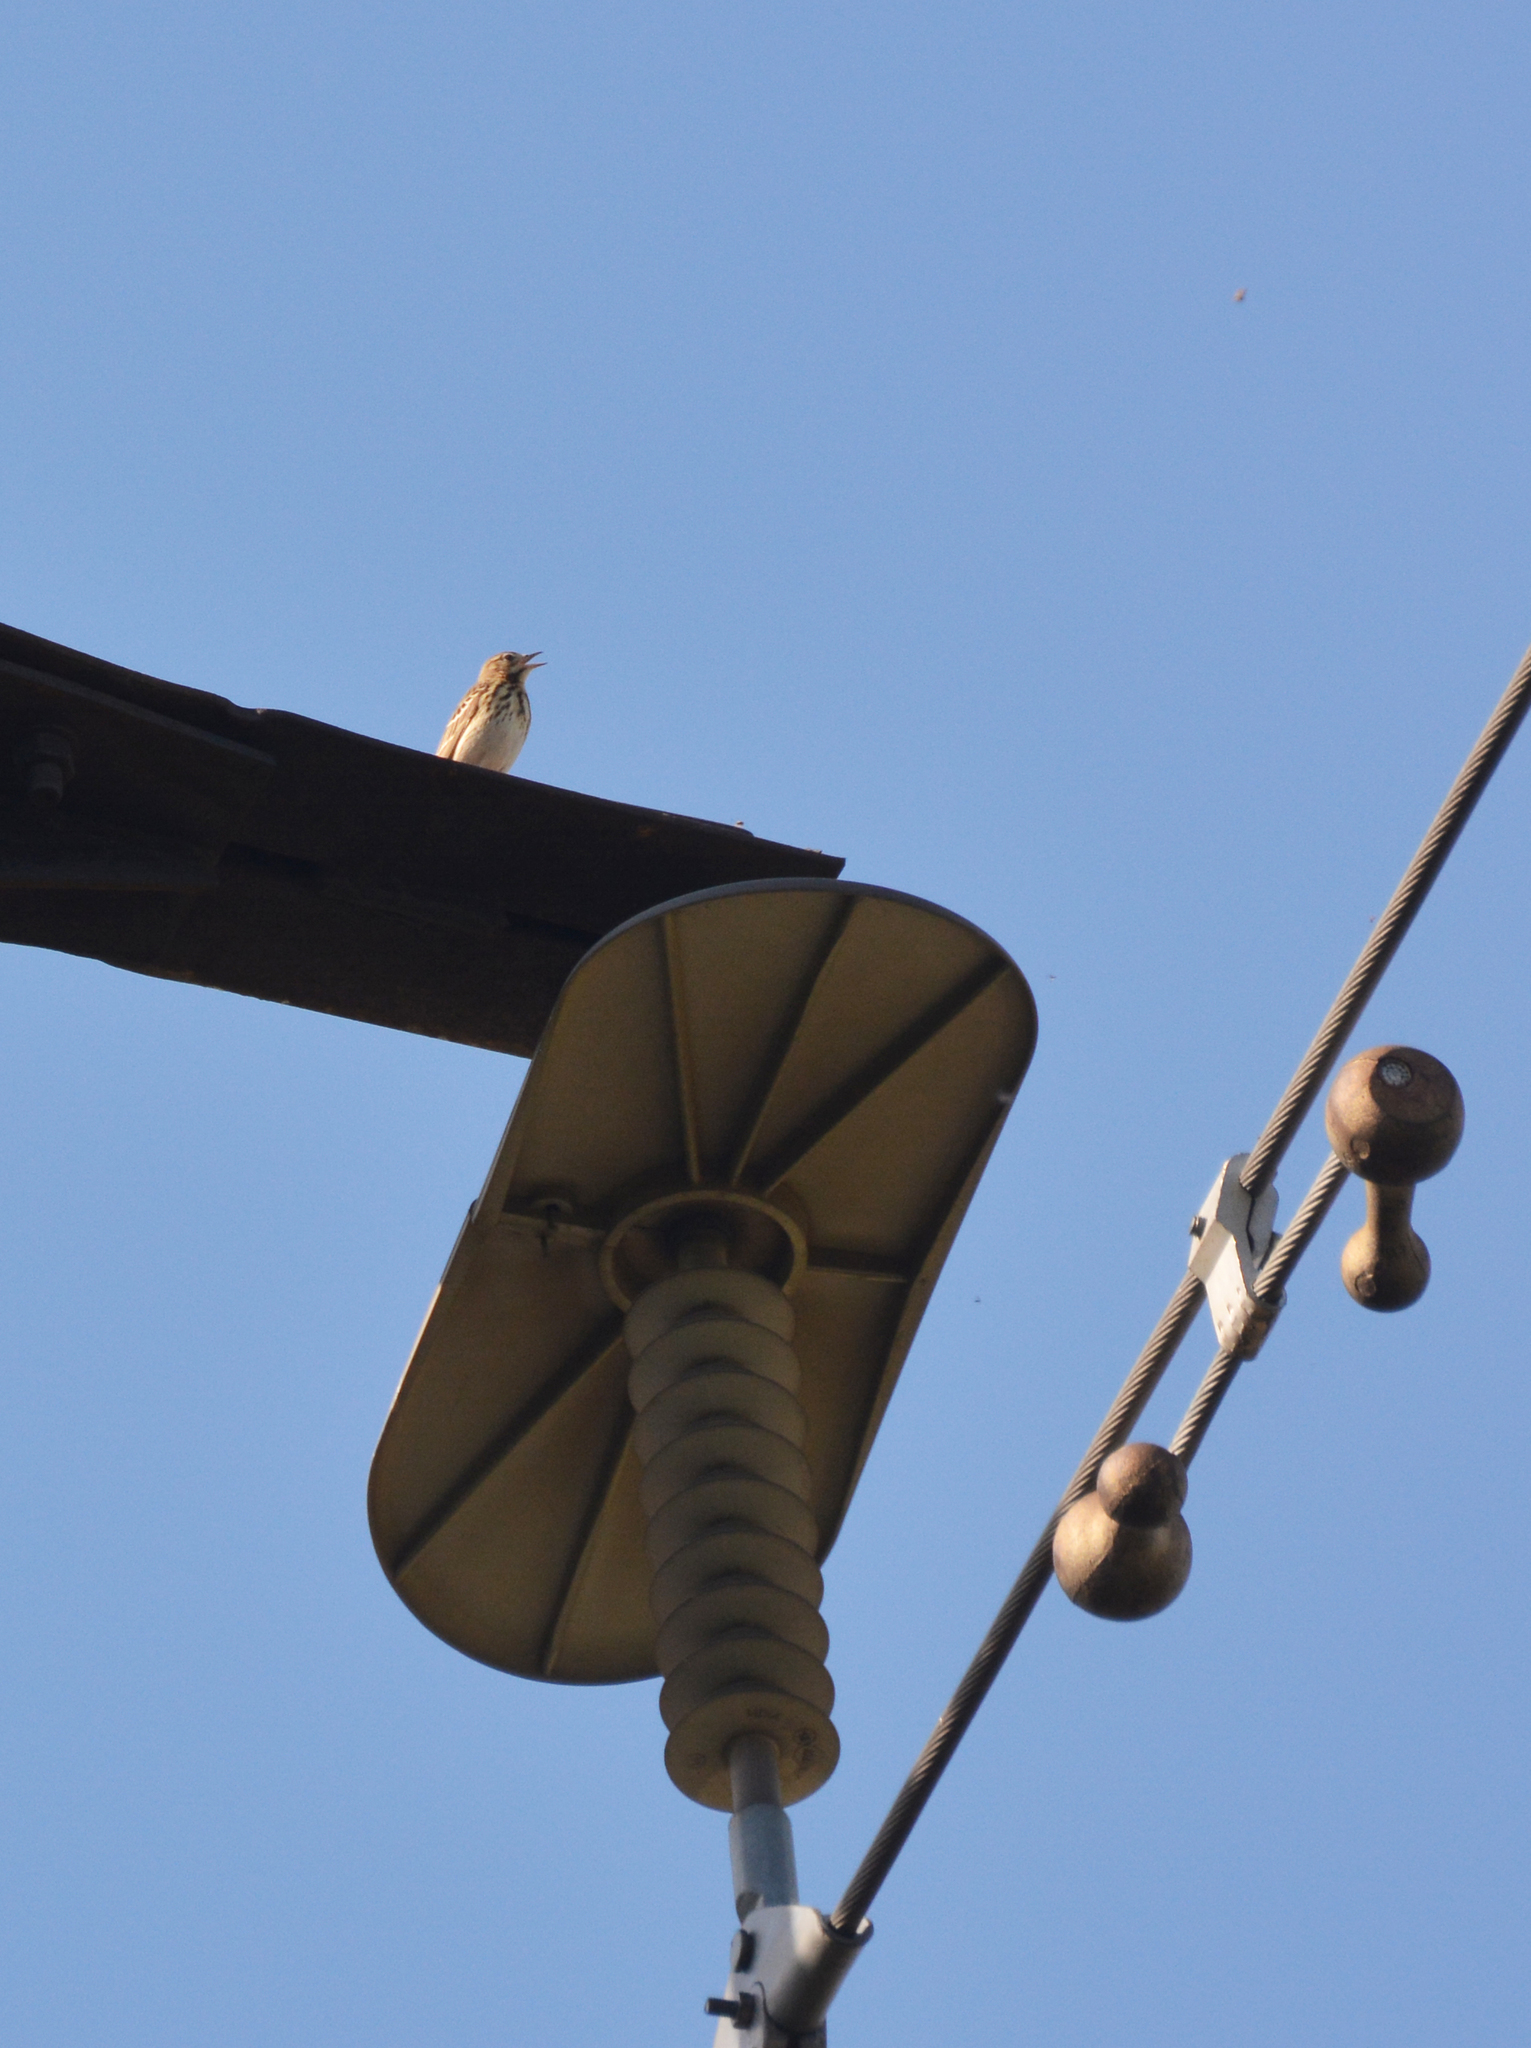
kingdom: Animalia
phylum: Chordata
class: Aves
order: Passeriformes
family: Motacillidae
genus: Anthus
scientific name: Anthus trivialis
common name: Tree pipit
